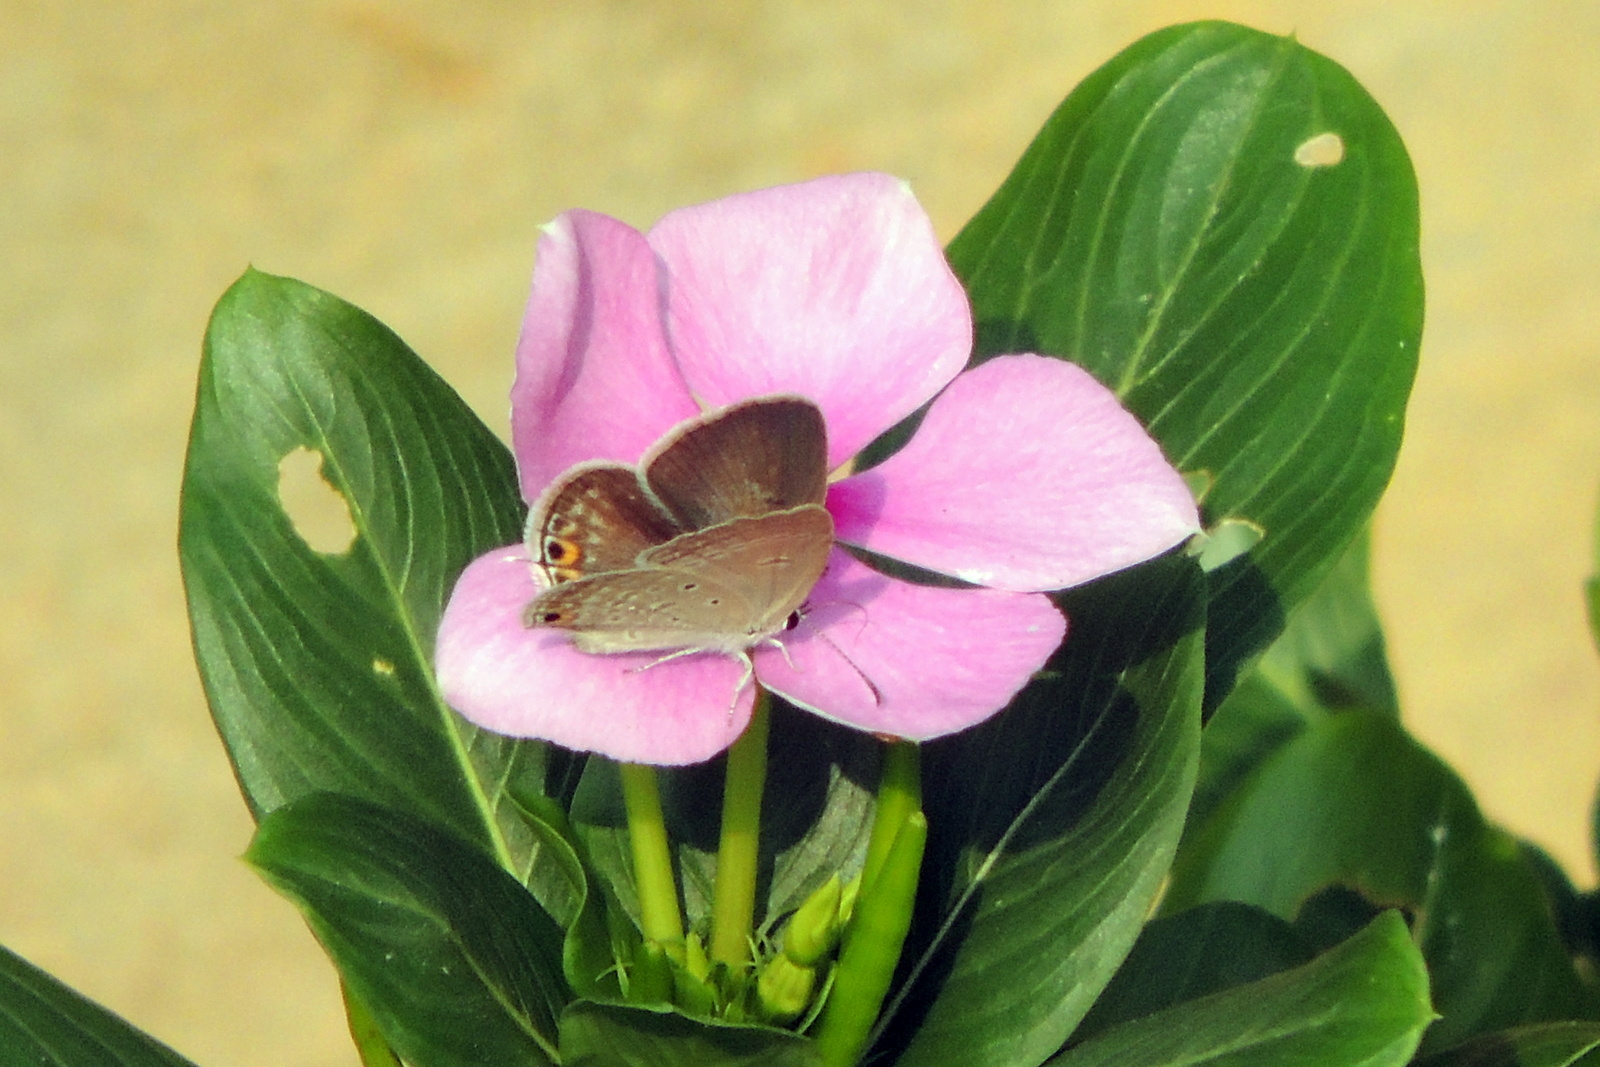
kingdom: Animalia
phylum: Arthropoda
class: Insecta
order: Lepidoptera
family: Lycaenidae
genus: Catochrysops
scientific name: Catochrysops strabo
